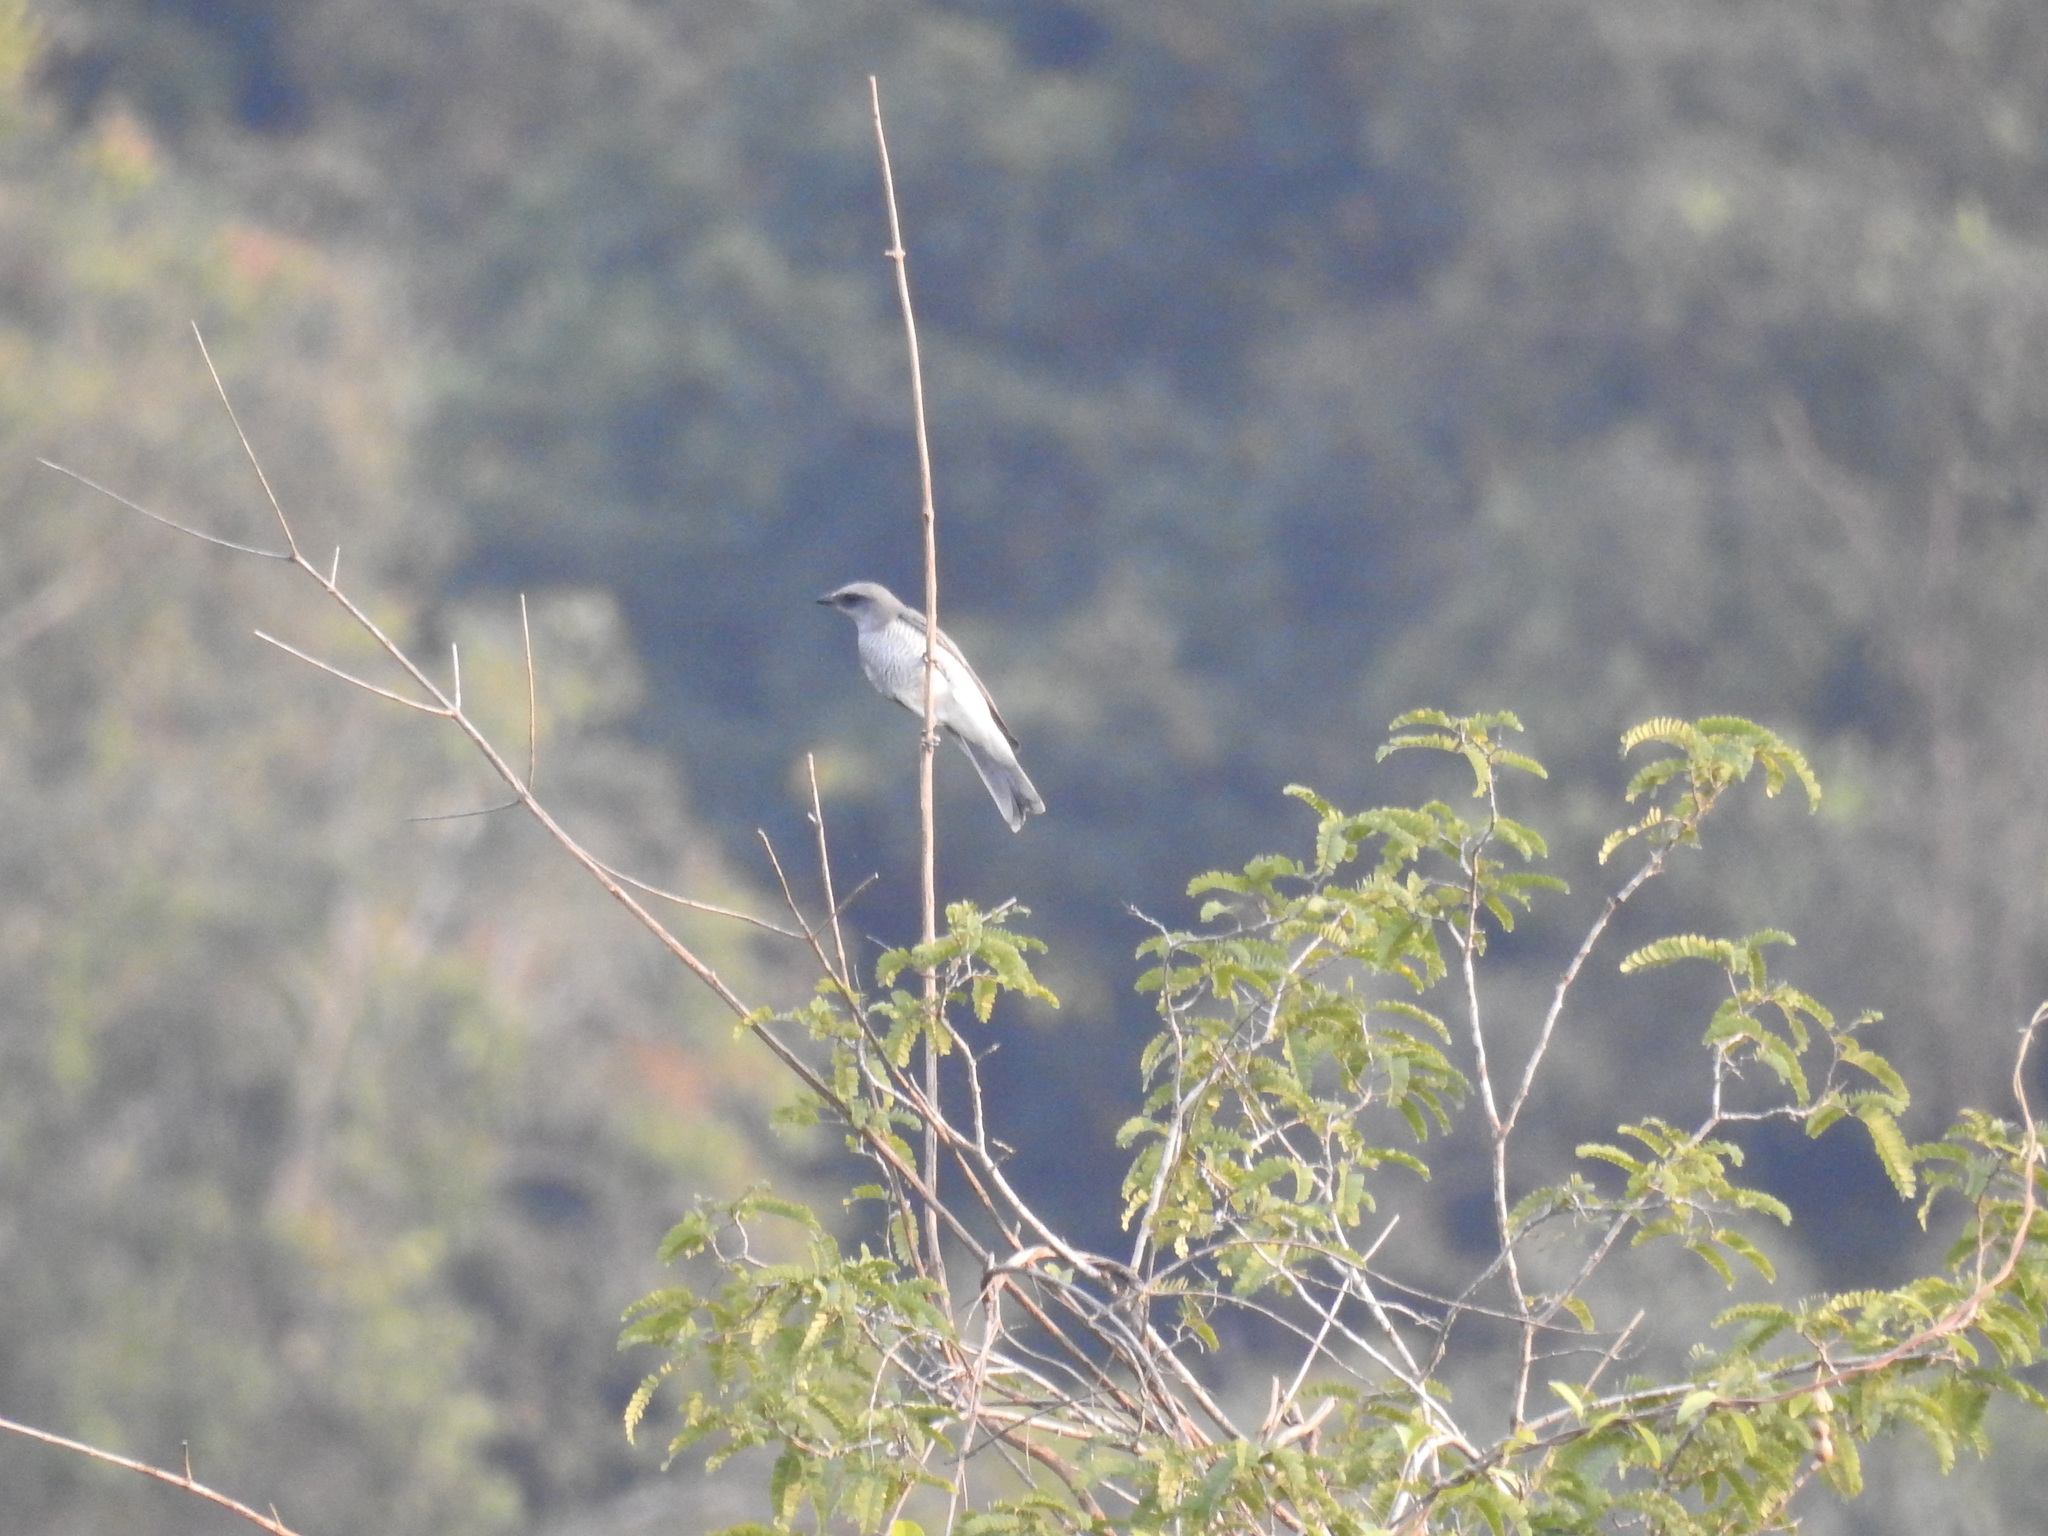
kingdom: Animalia
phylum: Chordata
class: Aves
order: Passeriformes
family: Campephagidae
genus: Coracina
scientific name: Coracina macei
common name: Large cuckooshrike
